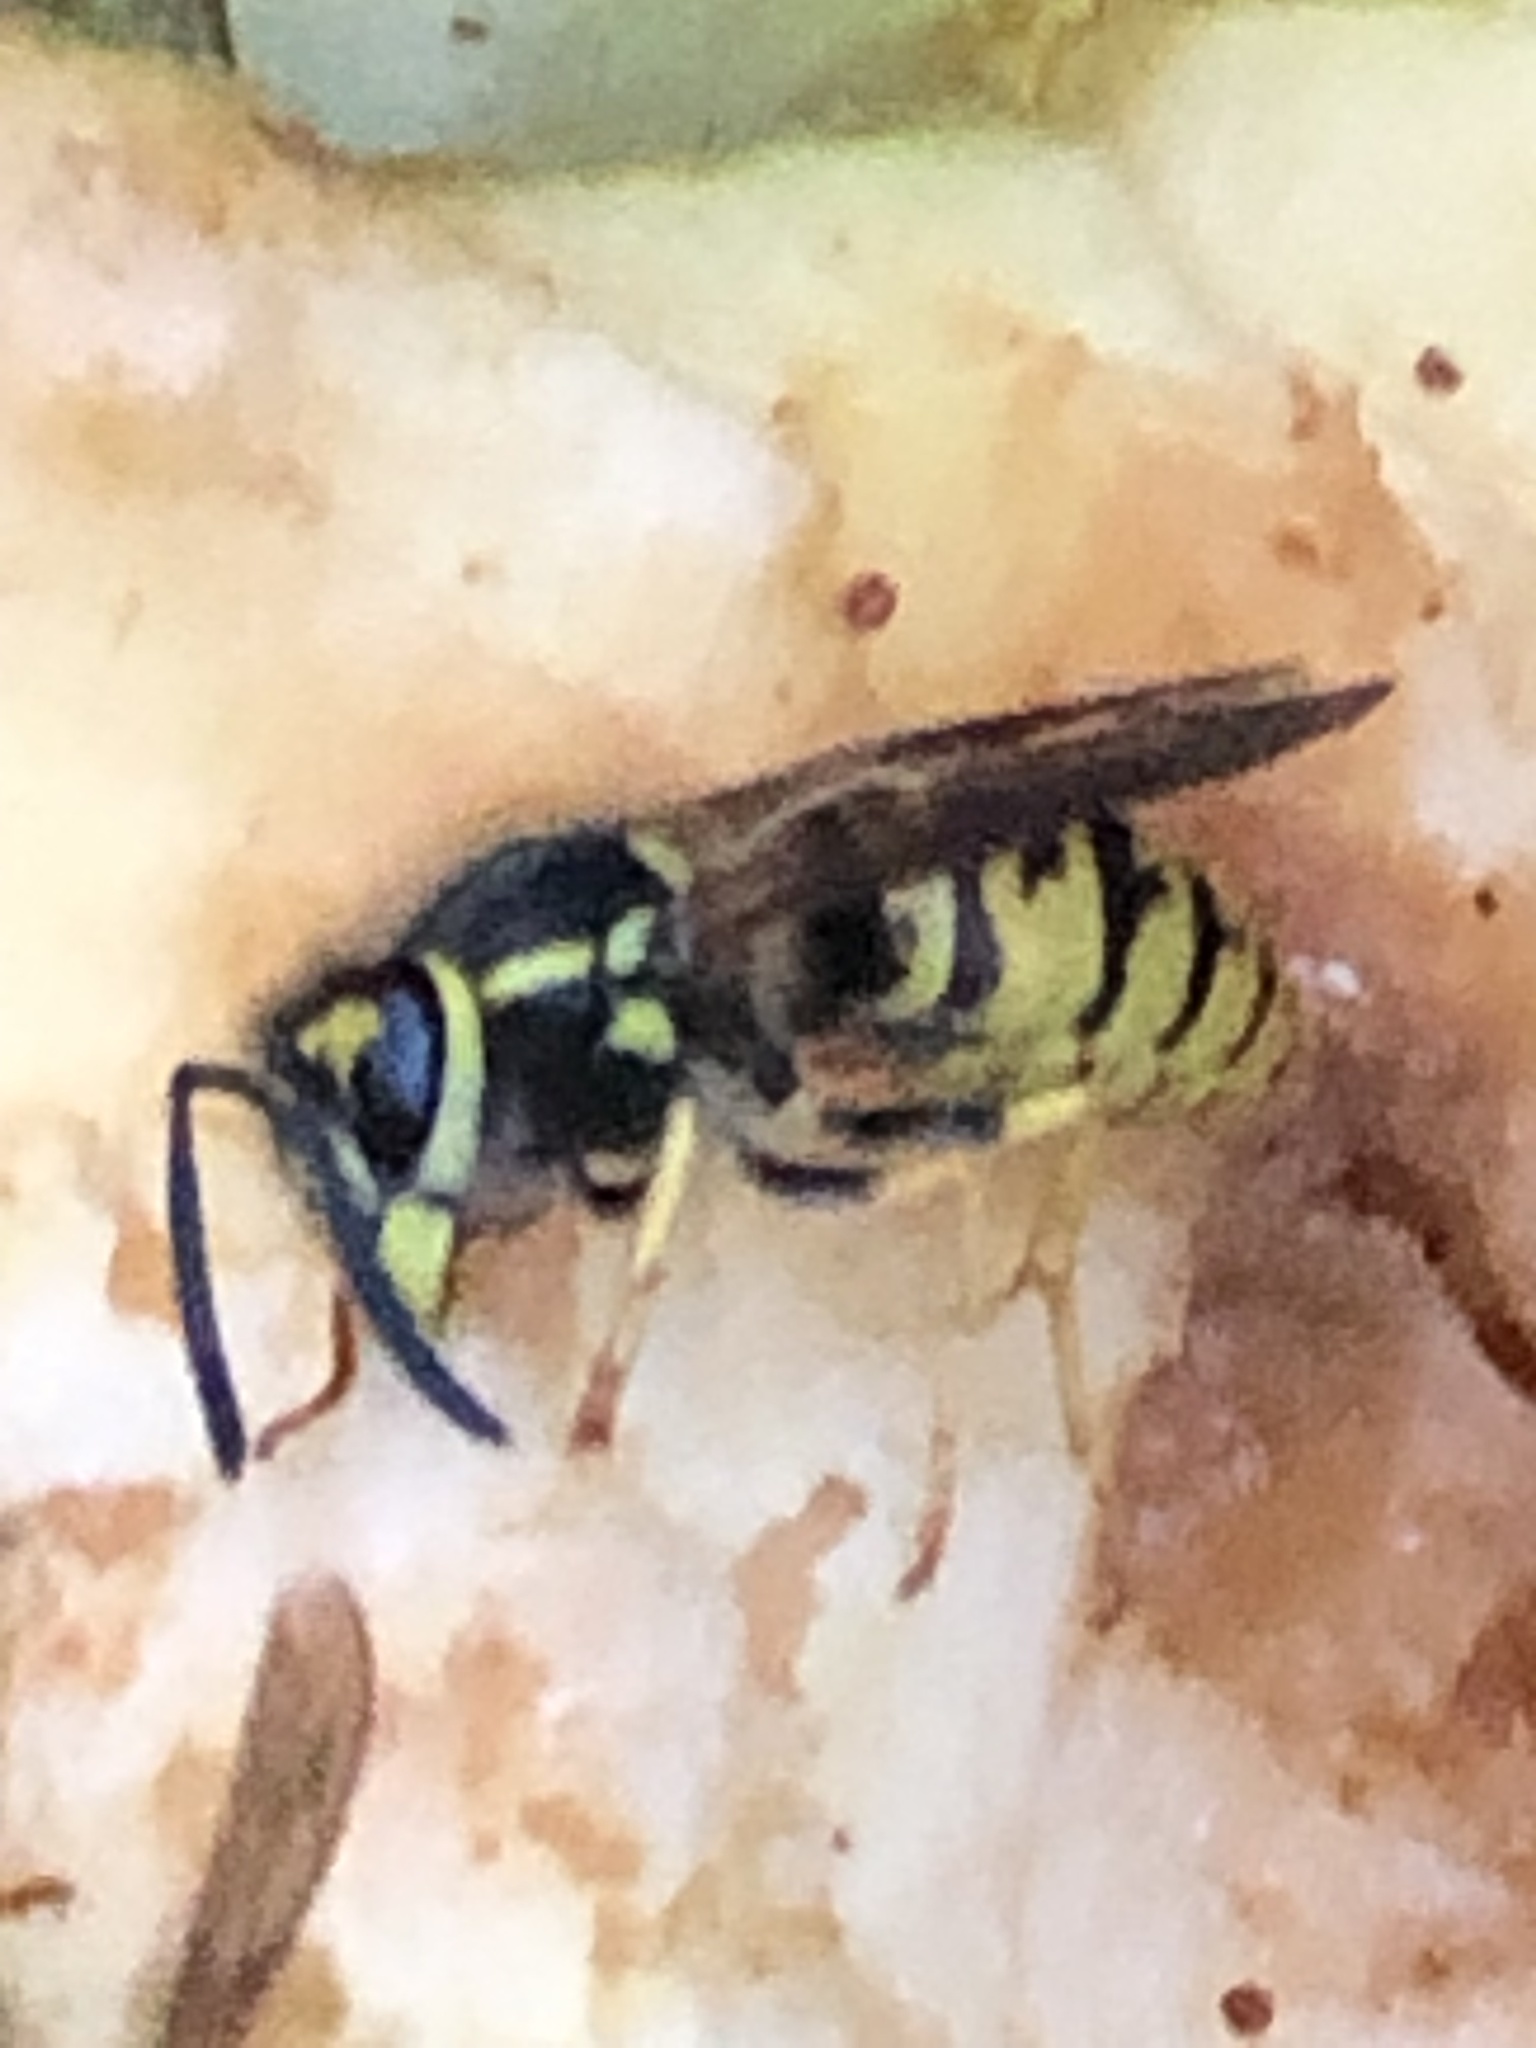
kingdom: Animalia
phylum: Arthropoda
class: Insecta
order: Hymenoptera
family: Vespidae
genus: Vespula
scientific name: Vespula germanica
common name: German wasp
